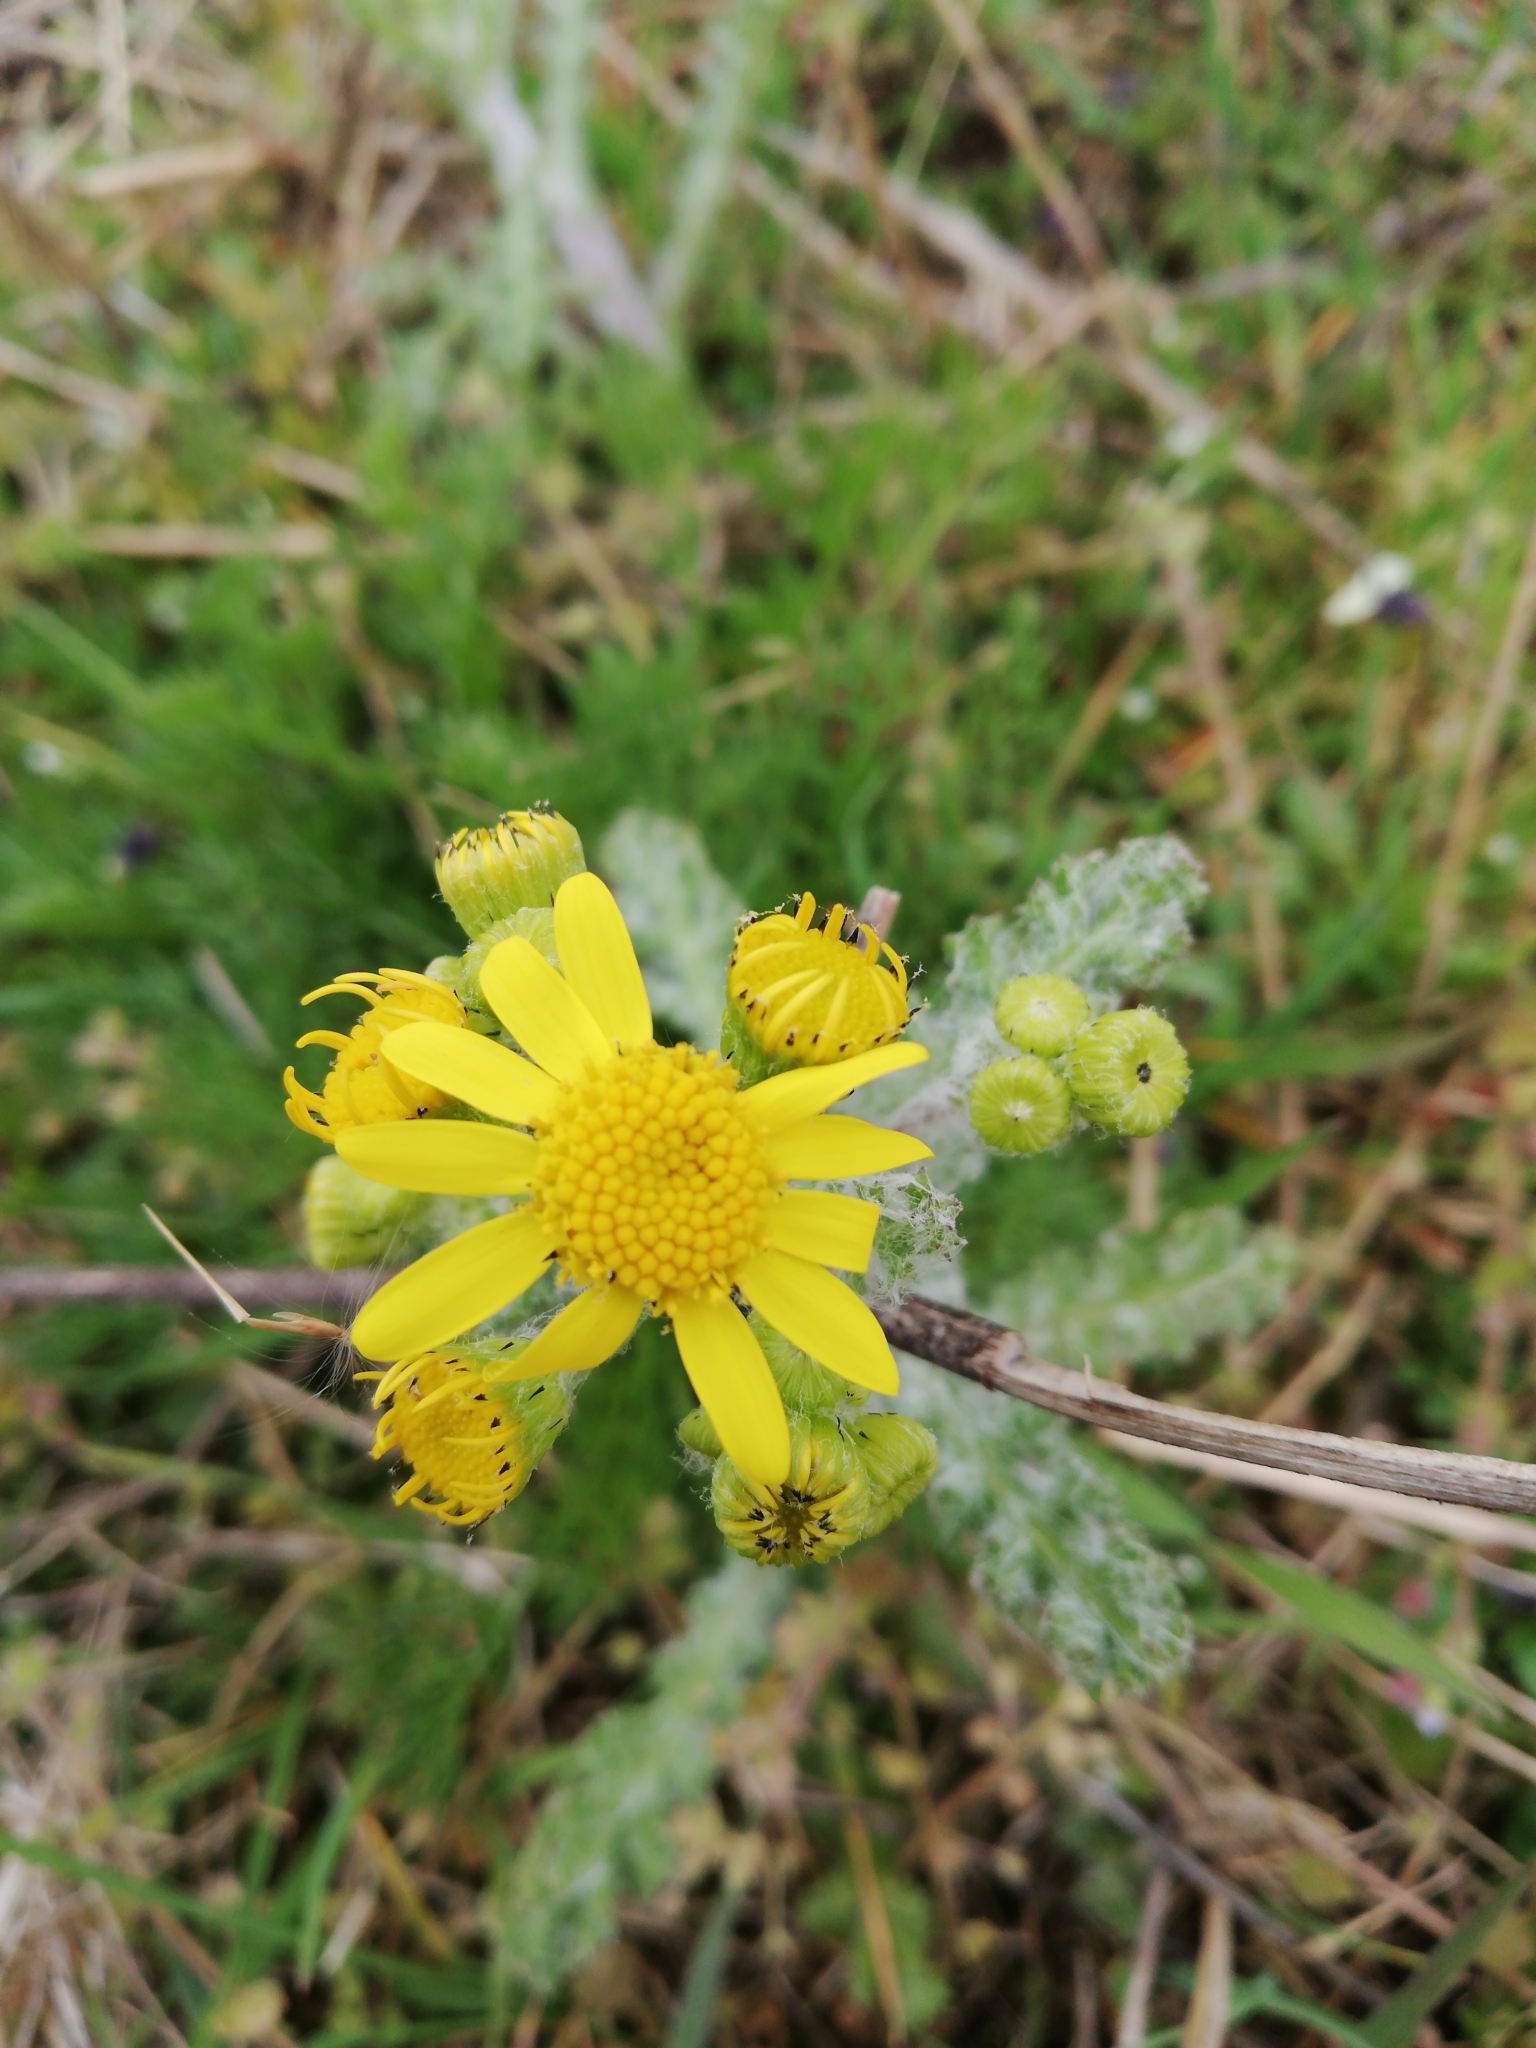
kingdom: Plantae
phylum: Tracheophyta
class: Magnoliopsida
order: Asterales
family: Asteraceae
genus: Senecio
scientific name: Senecio vernalis
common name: Eastern groundsel
